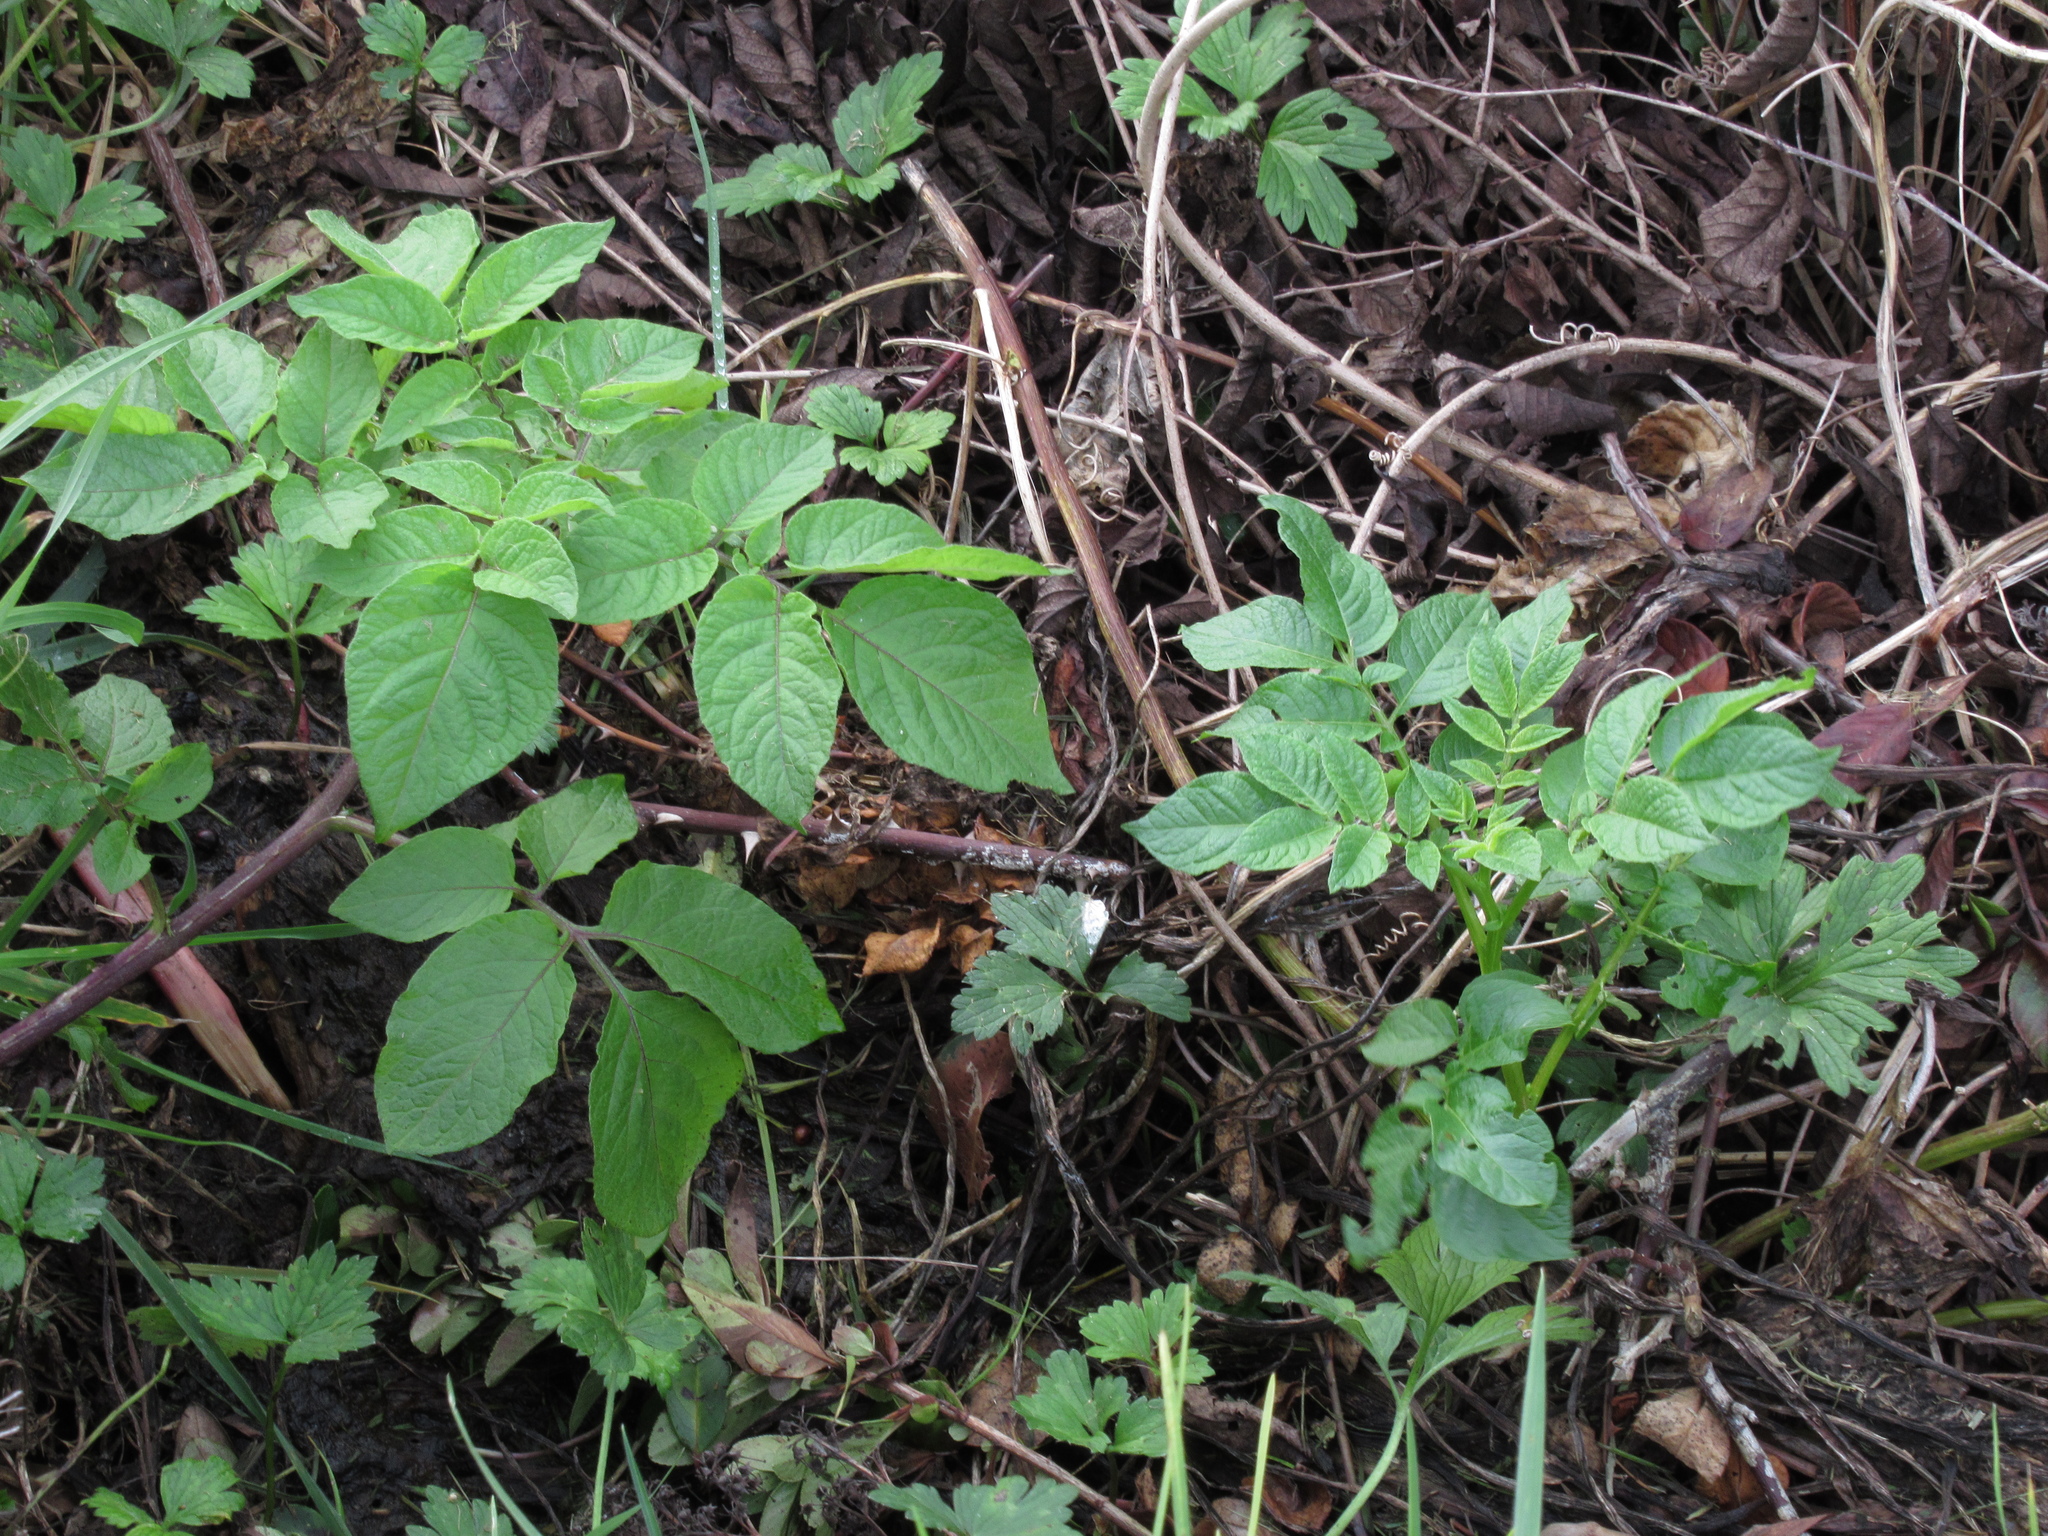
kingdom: Plantae
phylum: Tracheophyta
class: Magnoliopsida
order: Solanales
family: Solanaceae
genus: Solanum
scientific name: Solanum tuberosum
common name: Potato
